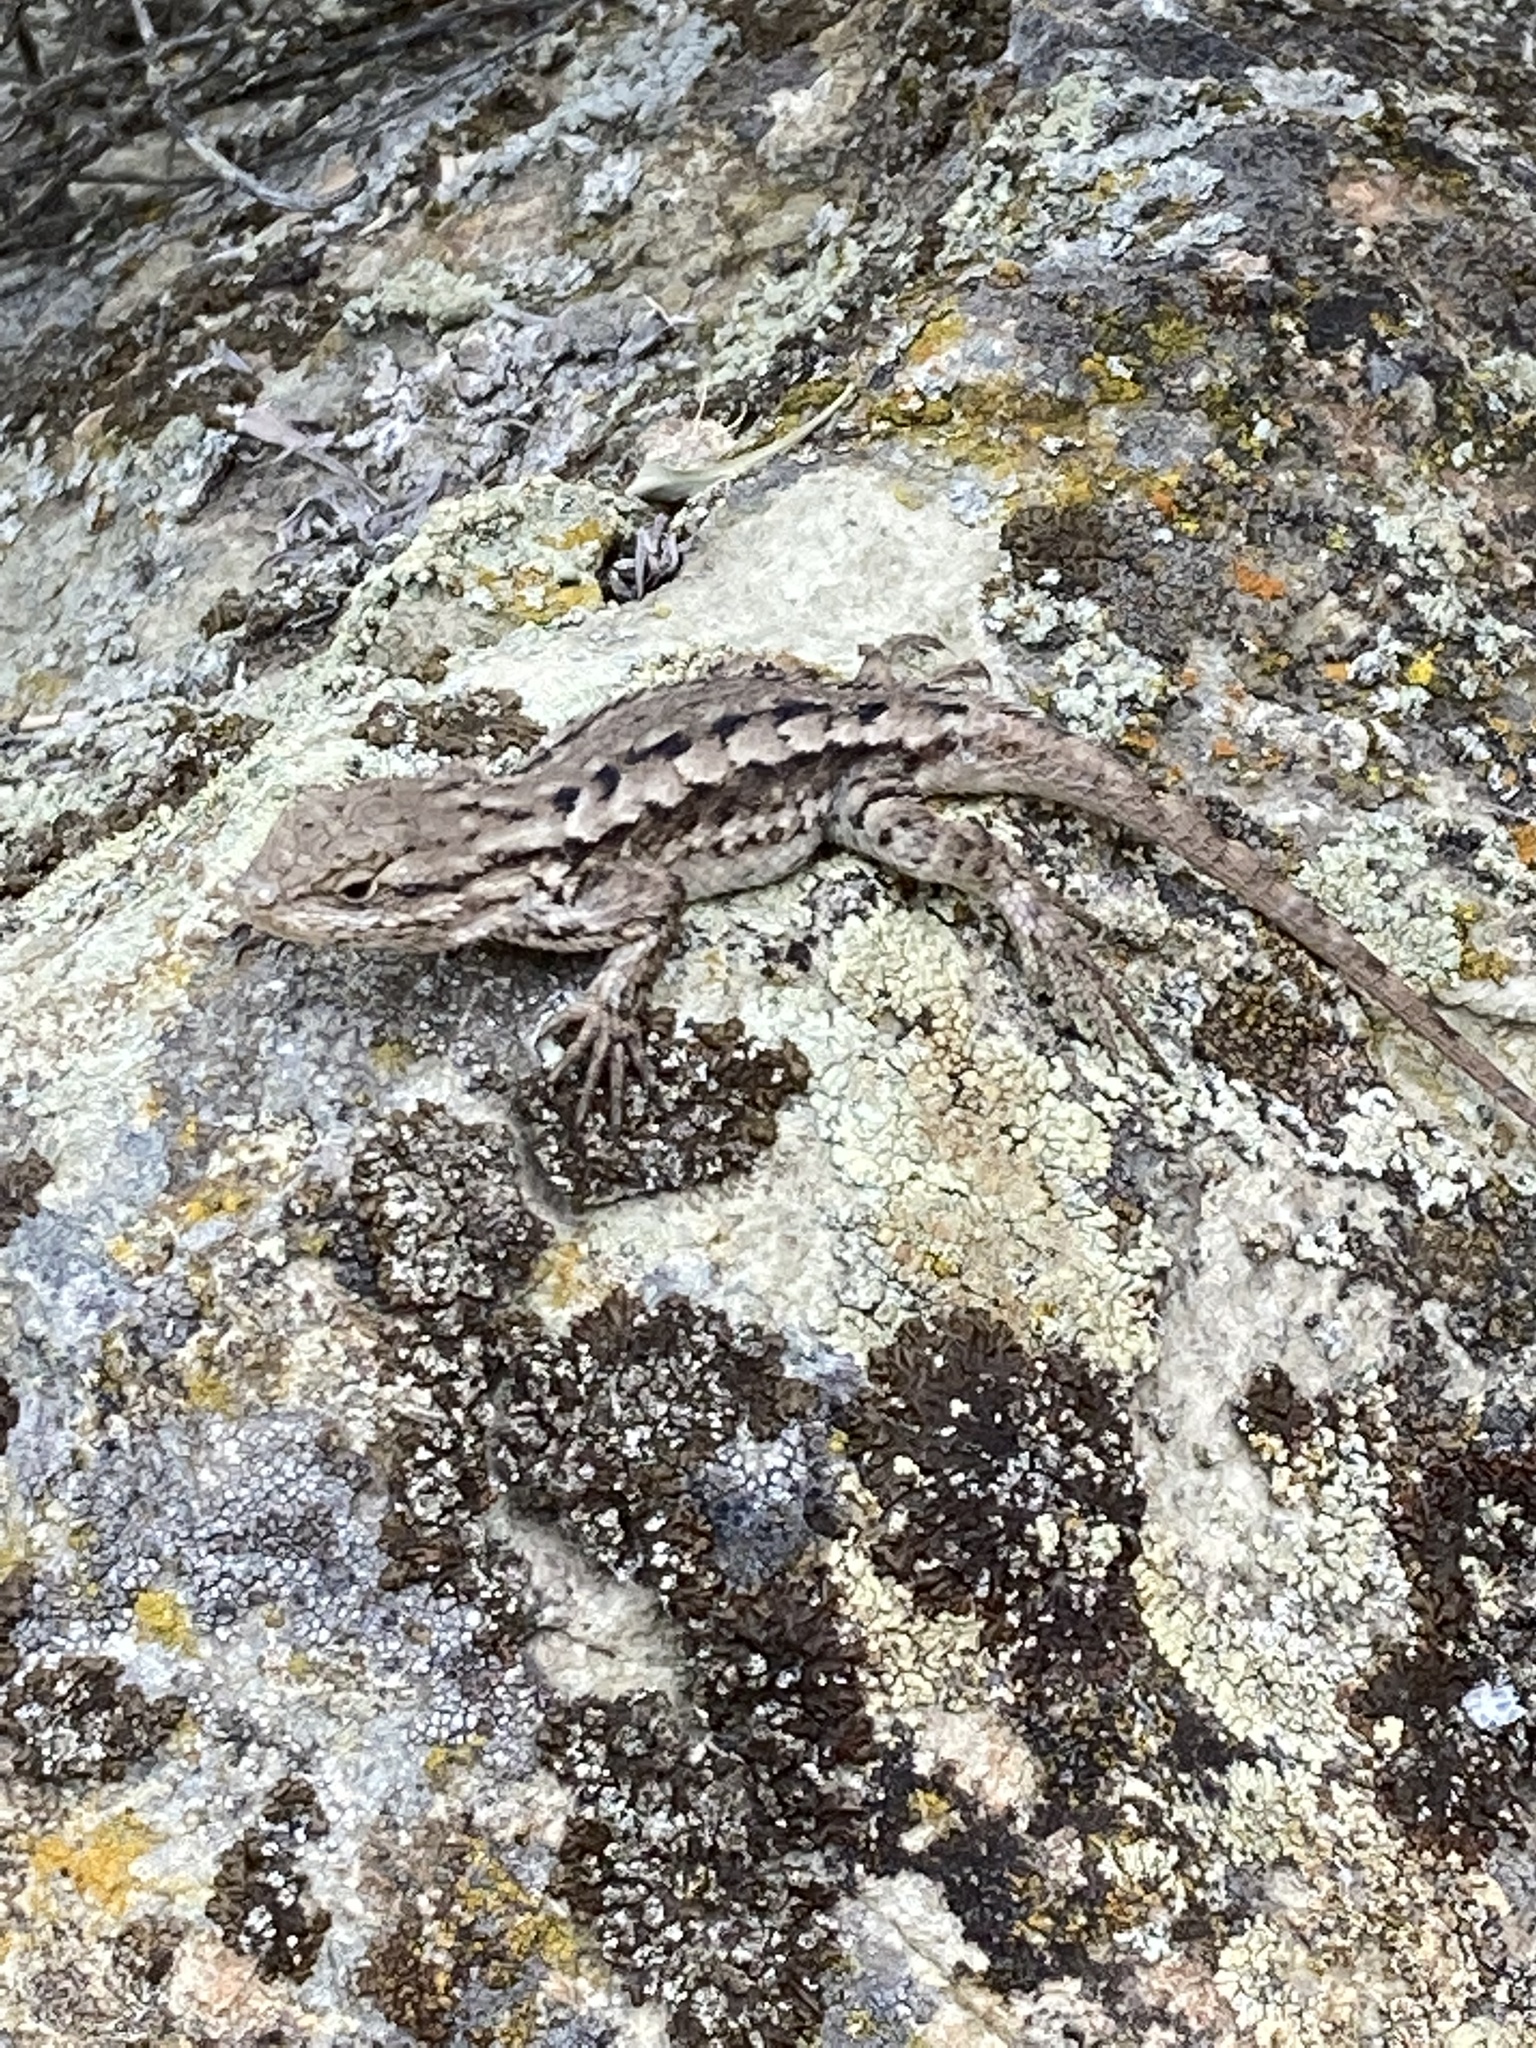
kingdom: Animalia
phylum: Chordata
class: Squamata
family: Phrynosomatidae
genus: Sceloporus
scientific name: Sceloporus occidentalis
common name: Western fence lizard
